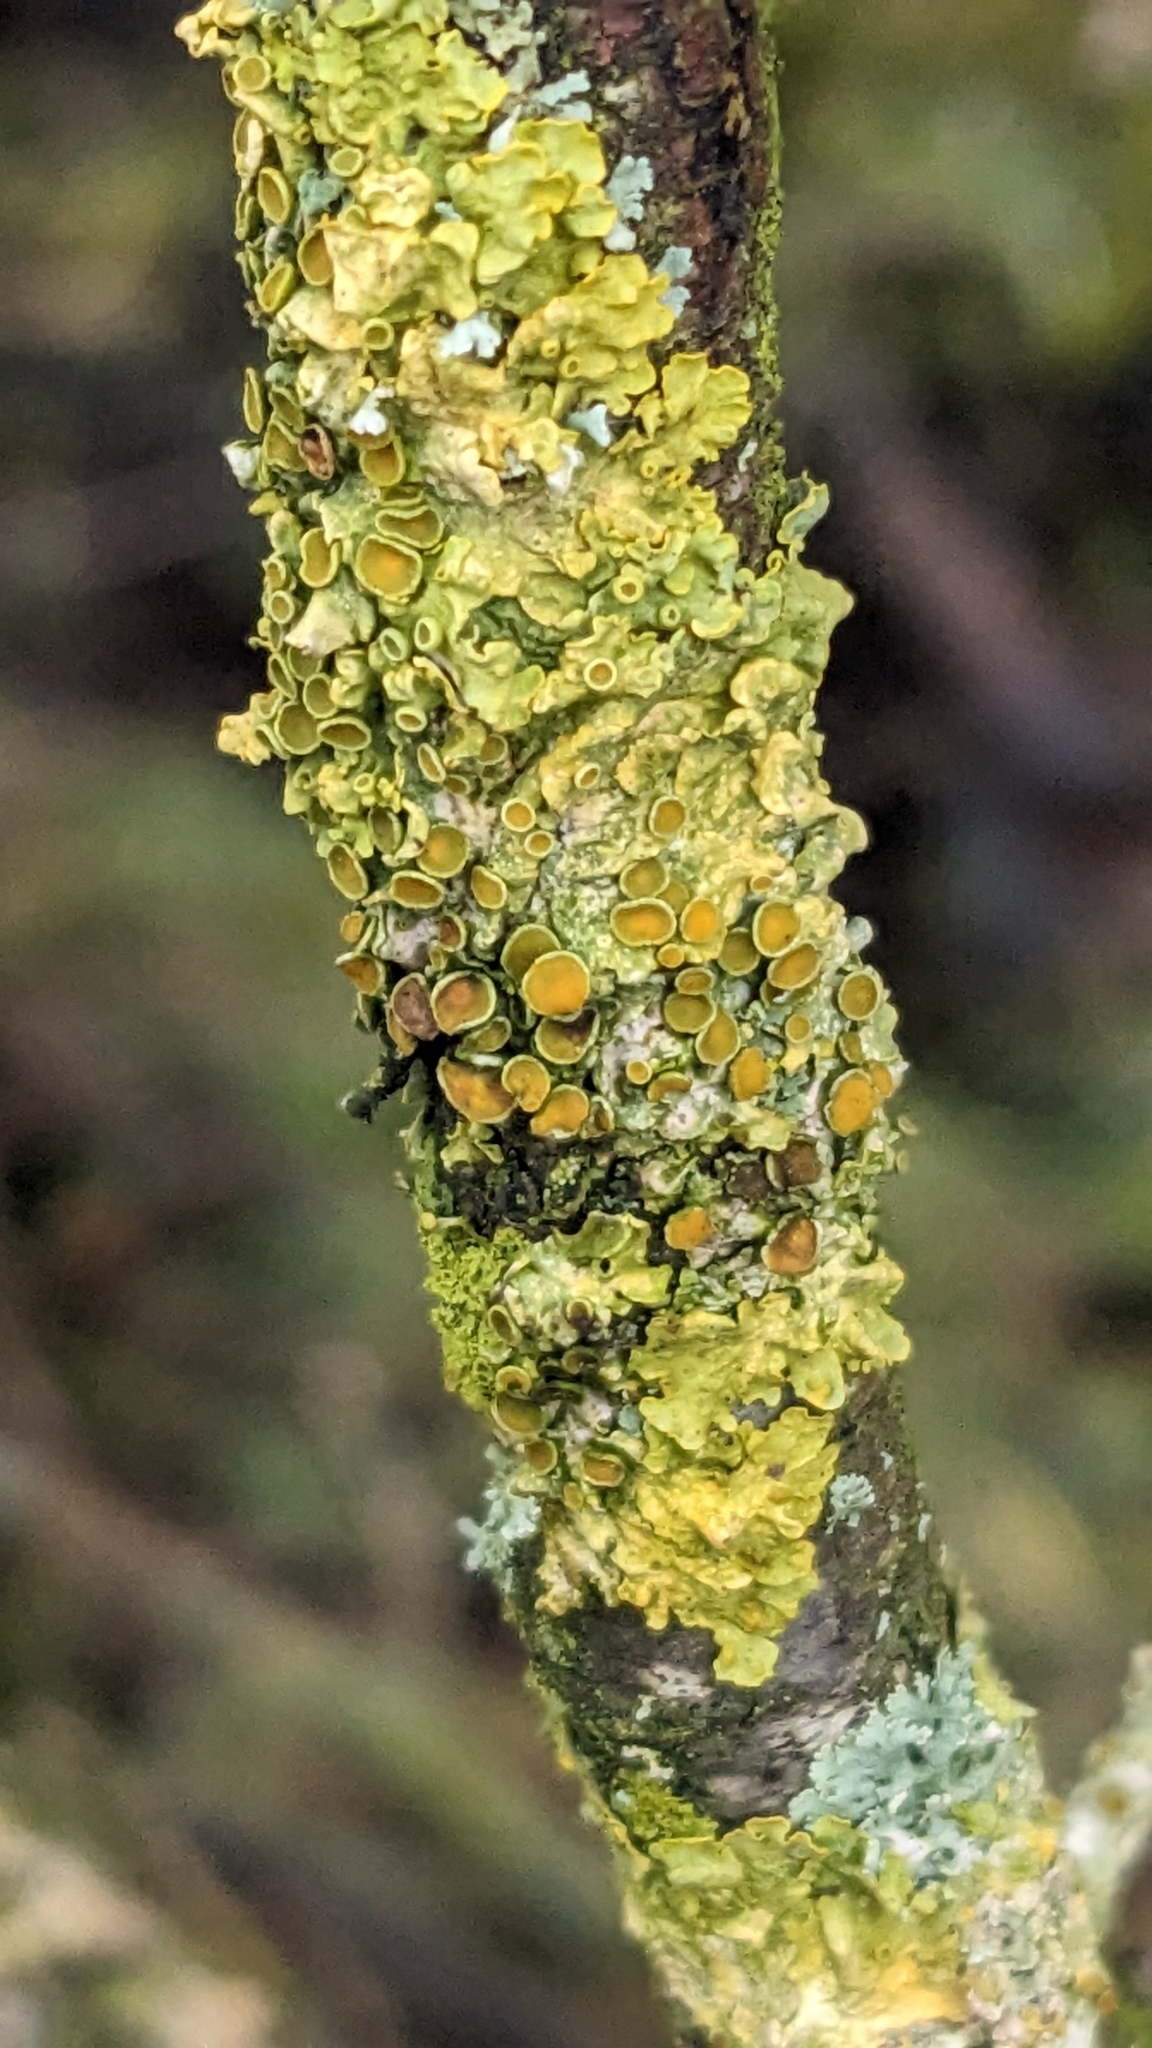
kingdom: Fungi
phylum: Ascomycota
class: Lecanoromycetes
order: Teloschistales
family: Teloschistaceae
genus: Xanthoria
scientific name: Xanthoria parietina
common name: Common orange lichen
